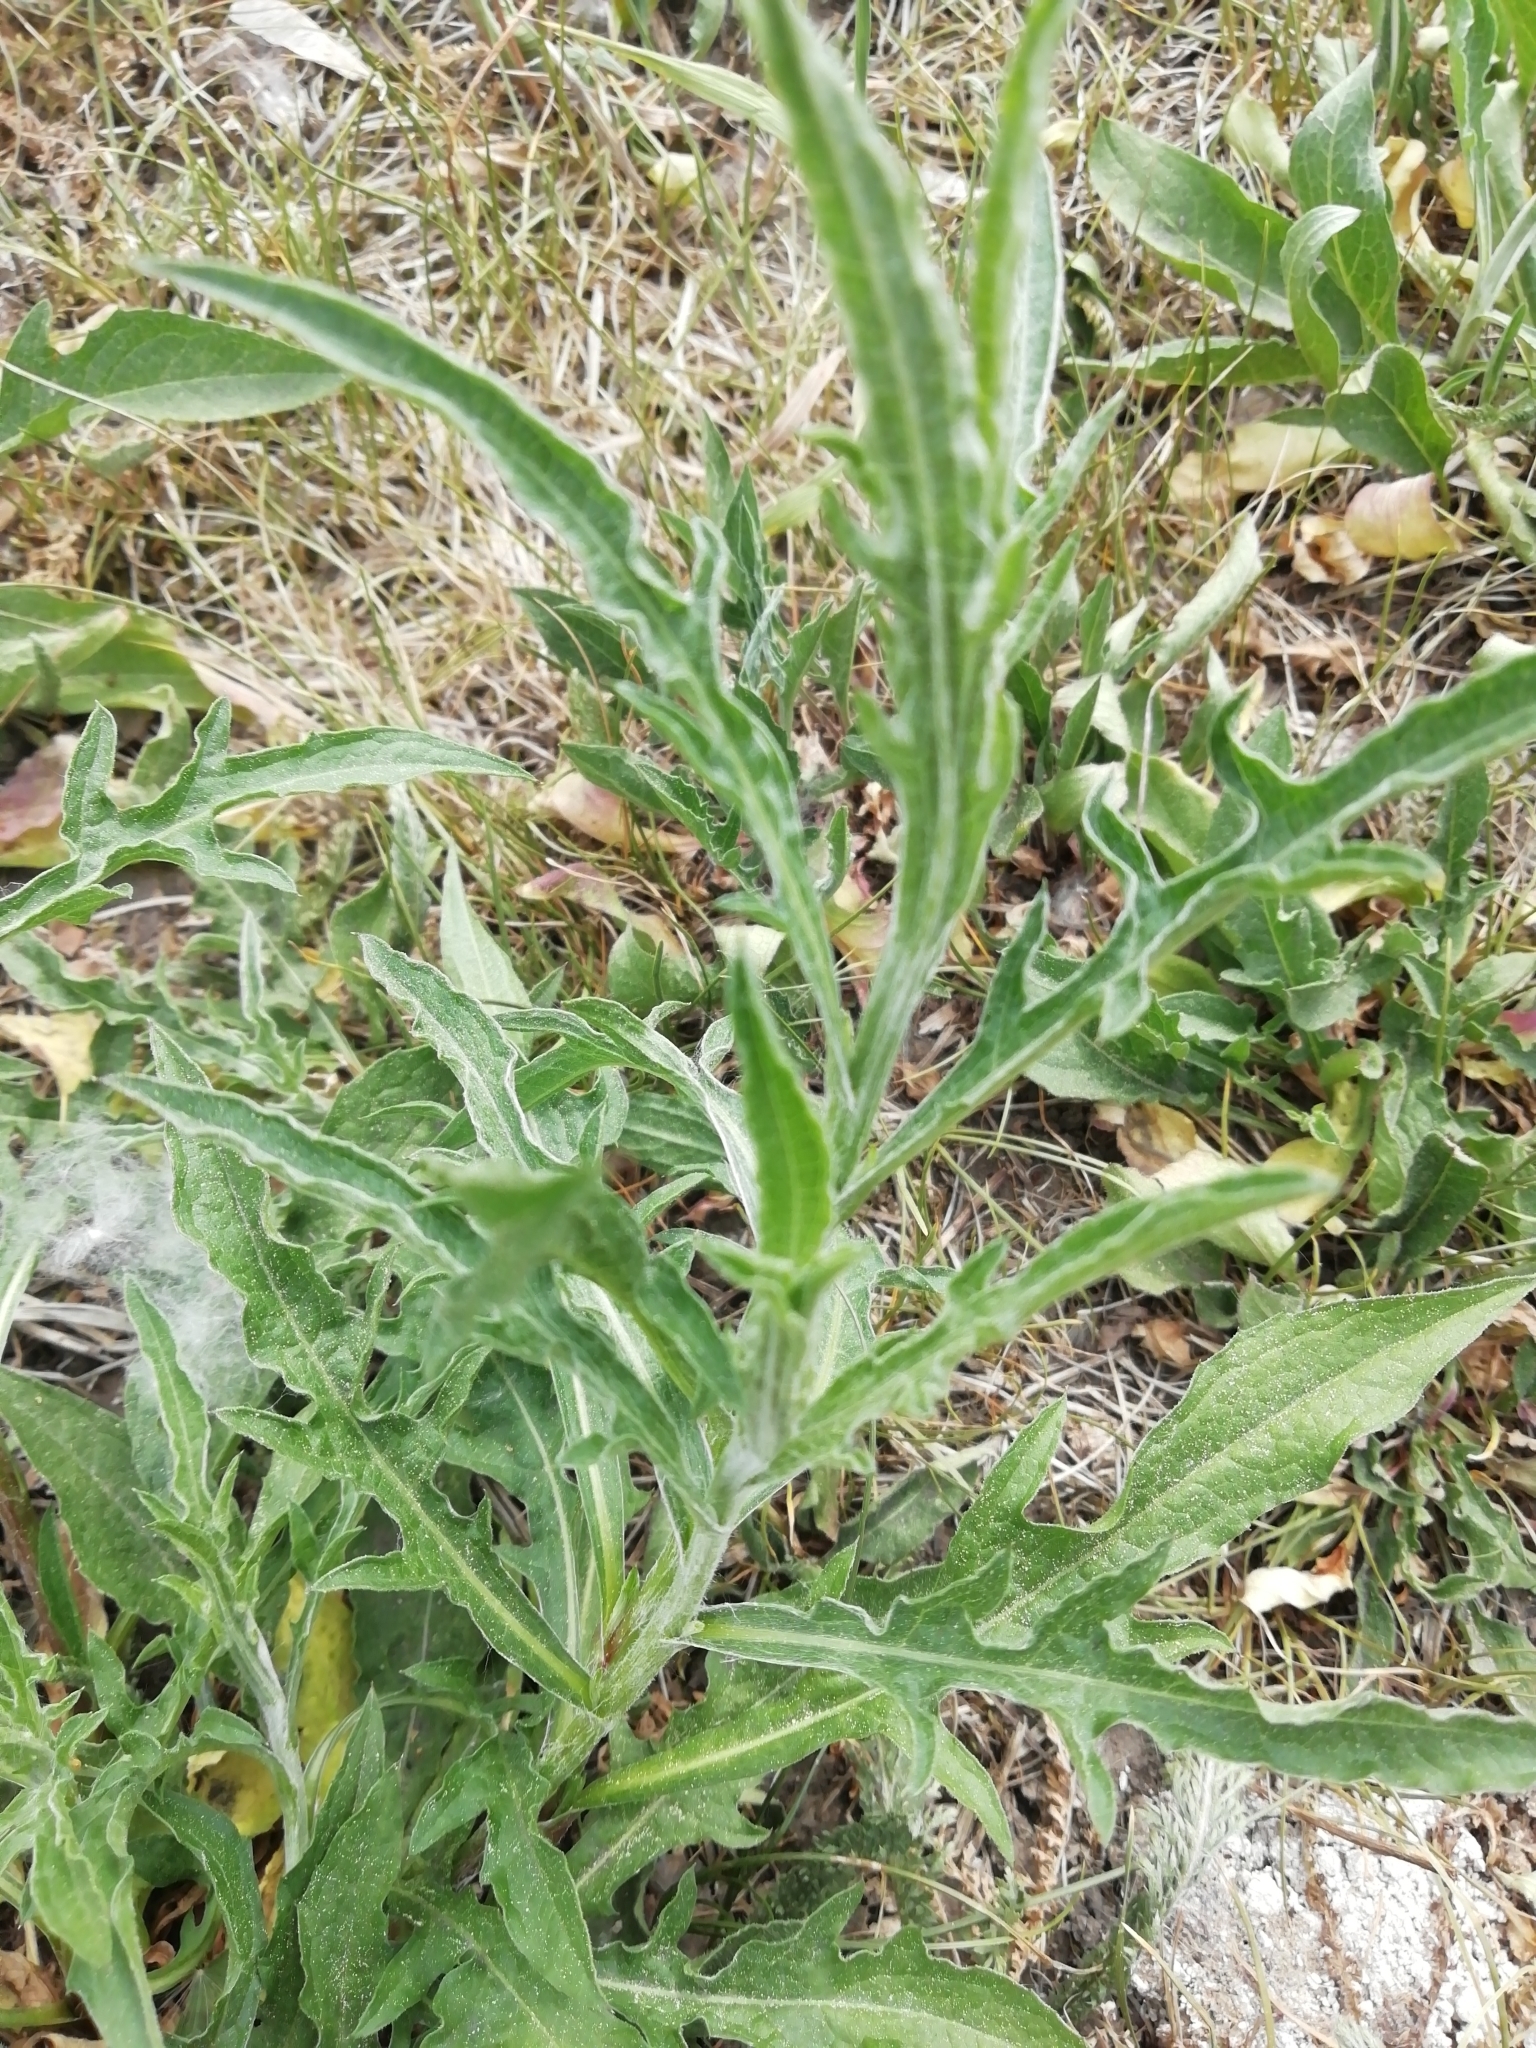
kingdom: Plantae
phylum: Tracheophyta
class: Magnoliopsida
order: Asterales
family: Asteraceae
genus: Centaurea
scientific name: Centaurea jacea
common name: Brown knapweed
